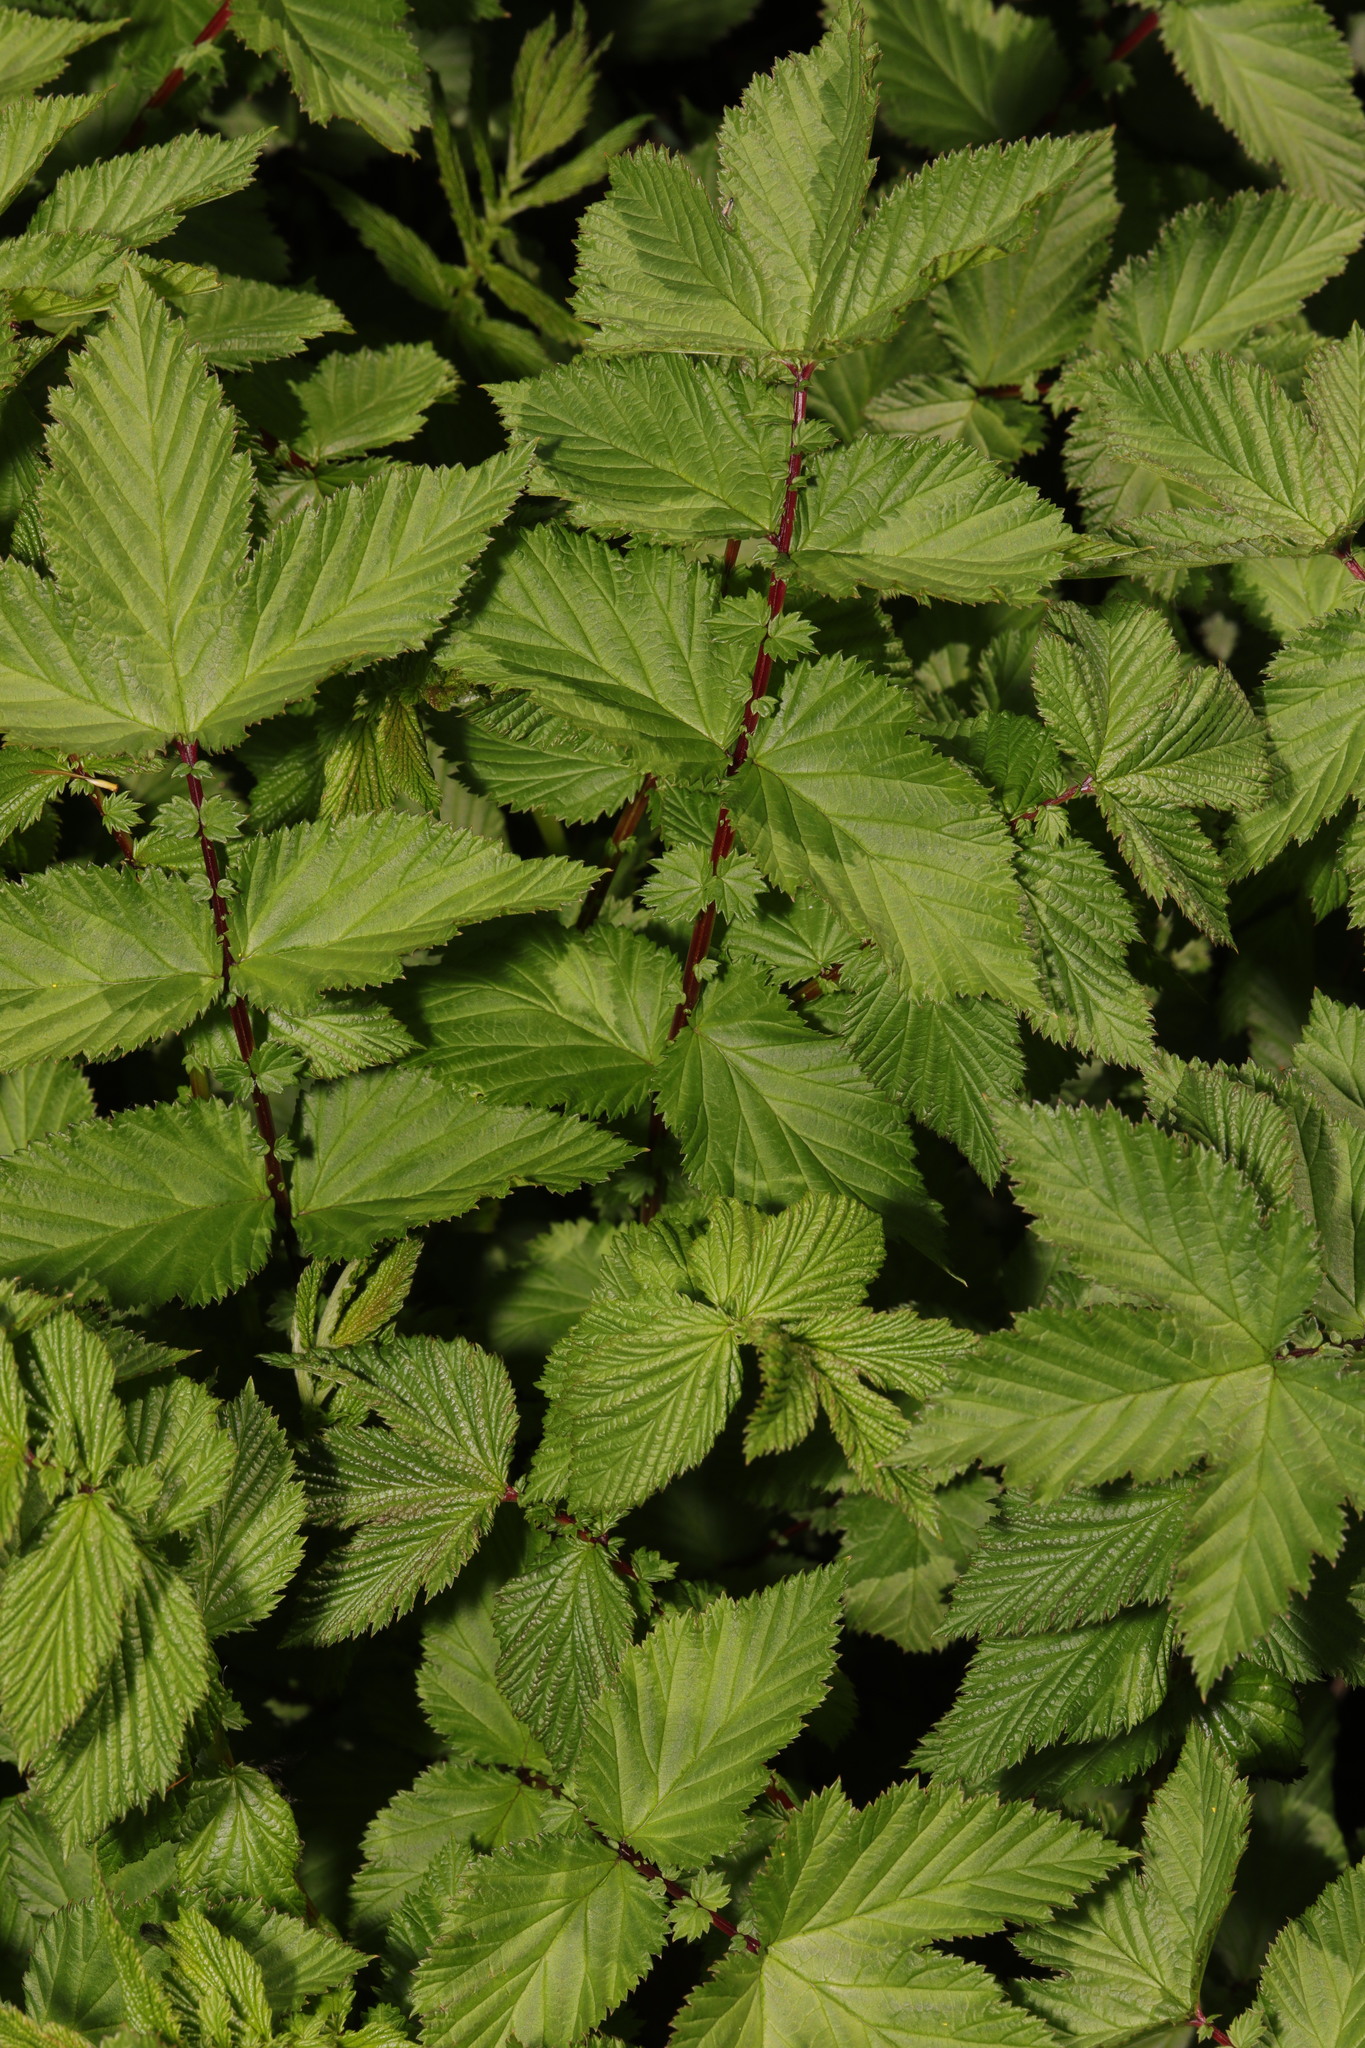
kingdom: Plantae
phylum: Tracheophyta
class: Magnoliopsida
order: Rosales
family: Rosaceae
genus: Filipendula
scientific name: Filipendula ulmaria
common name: Meadowsweet
